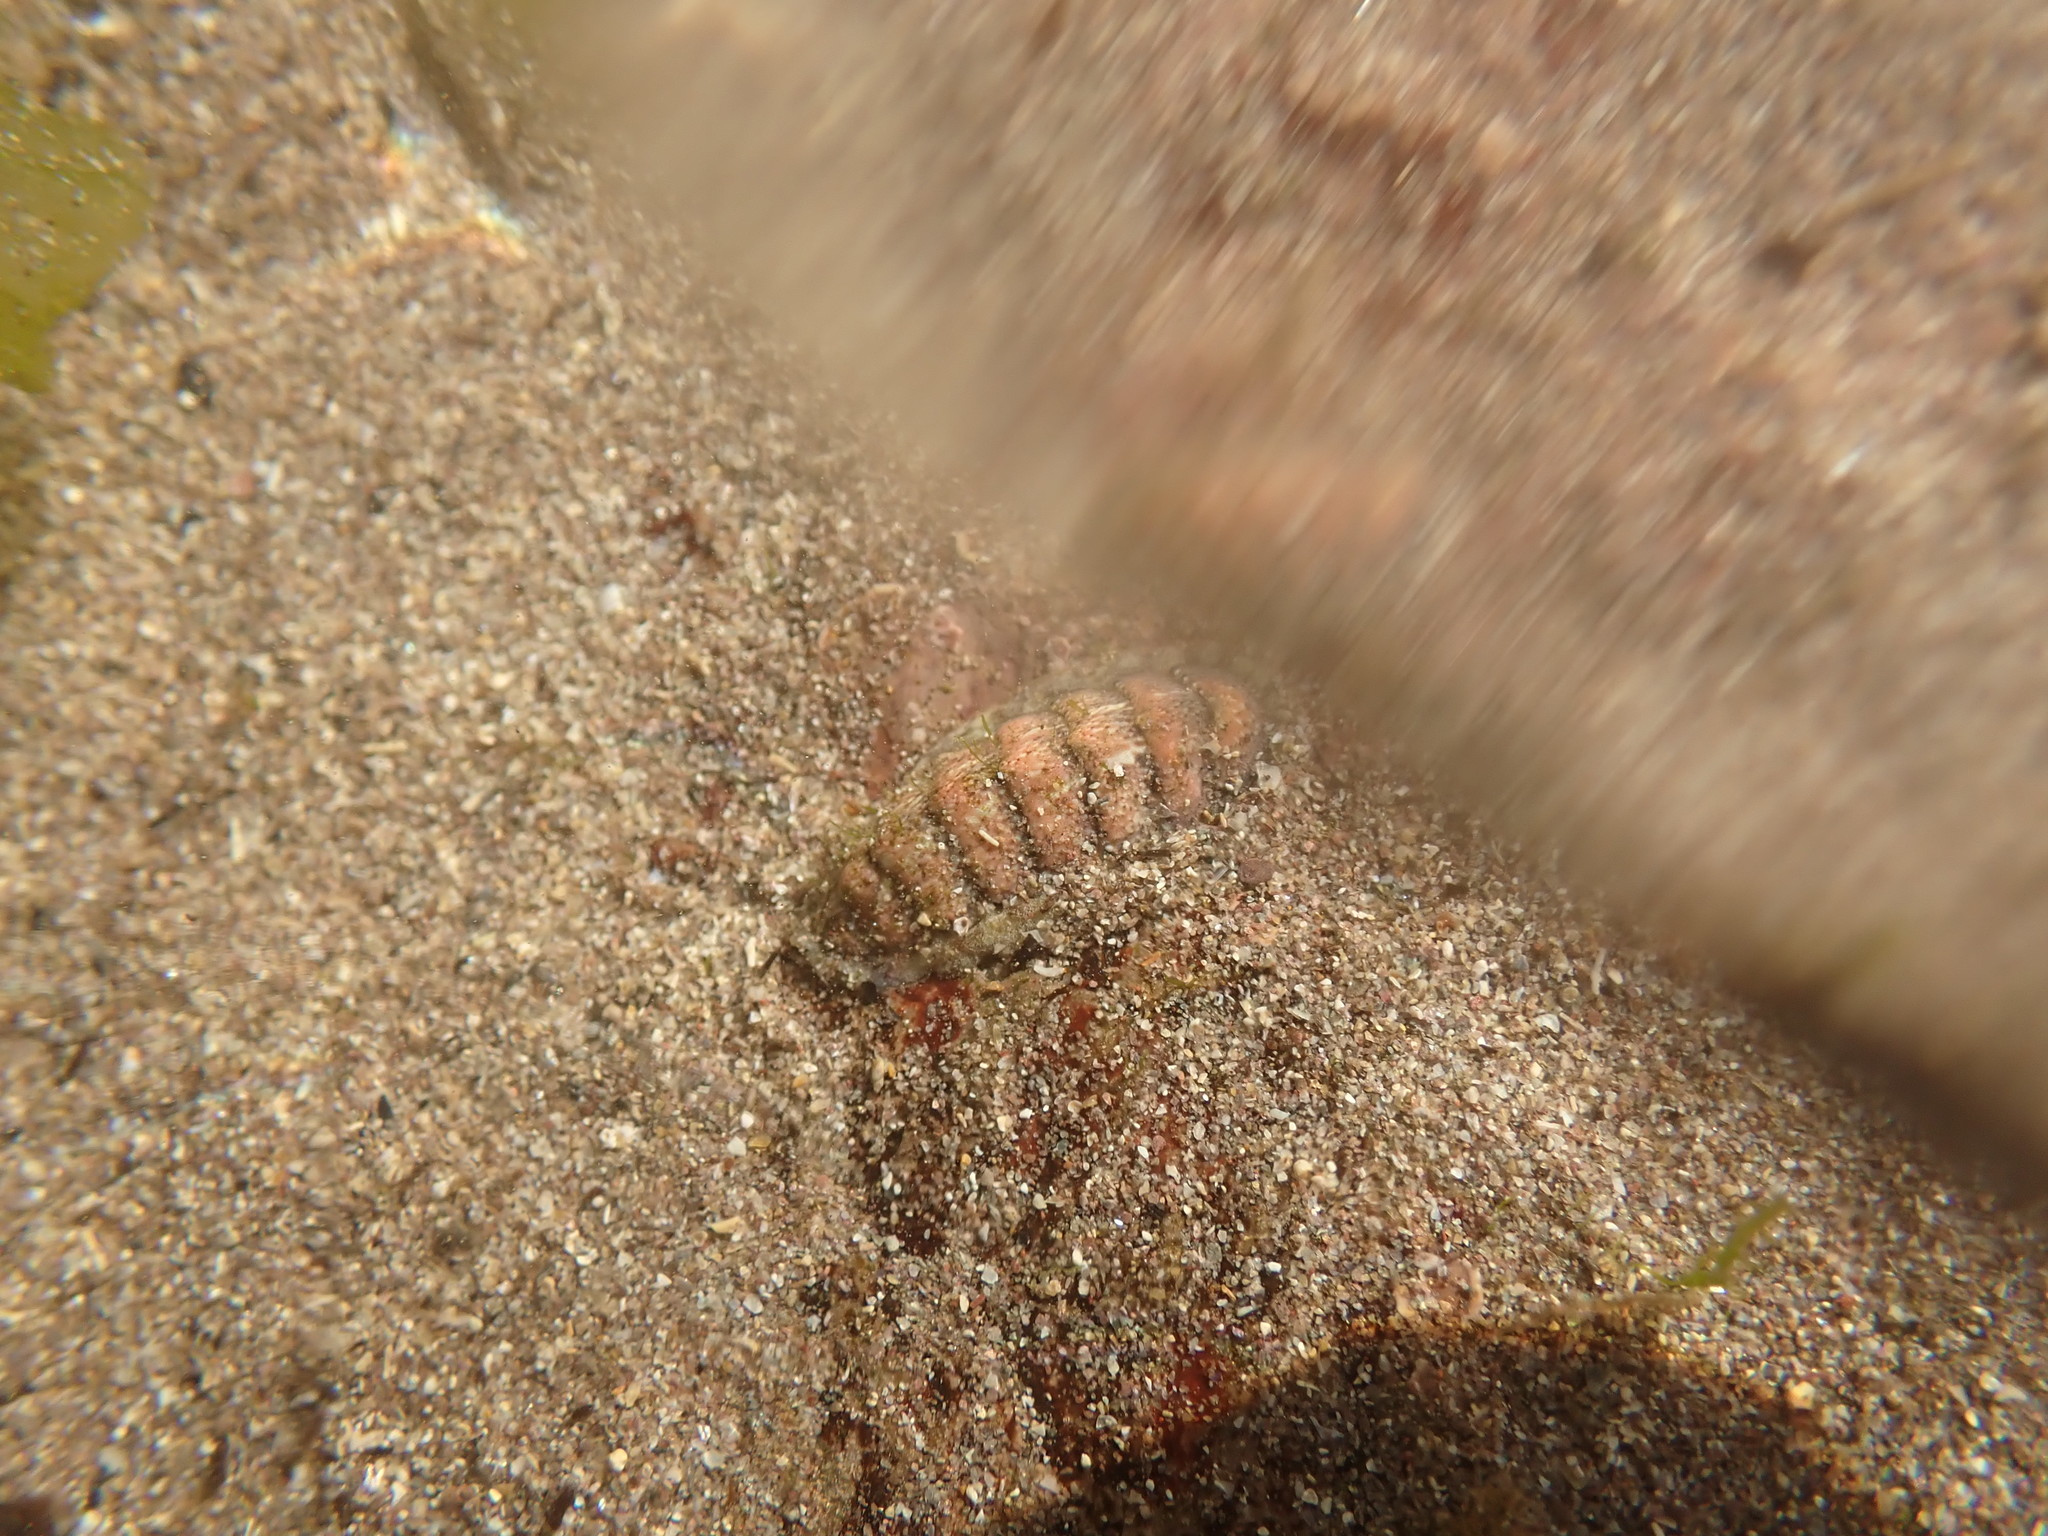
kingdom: Animalia
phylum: Mollusca
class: Polyplacophora
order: Chitonida
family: Tonicellidae
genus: Lepidochitona
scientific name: Lepidochitona cinerea
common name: Cinereous chiton
